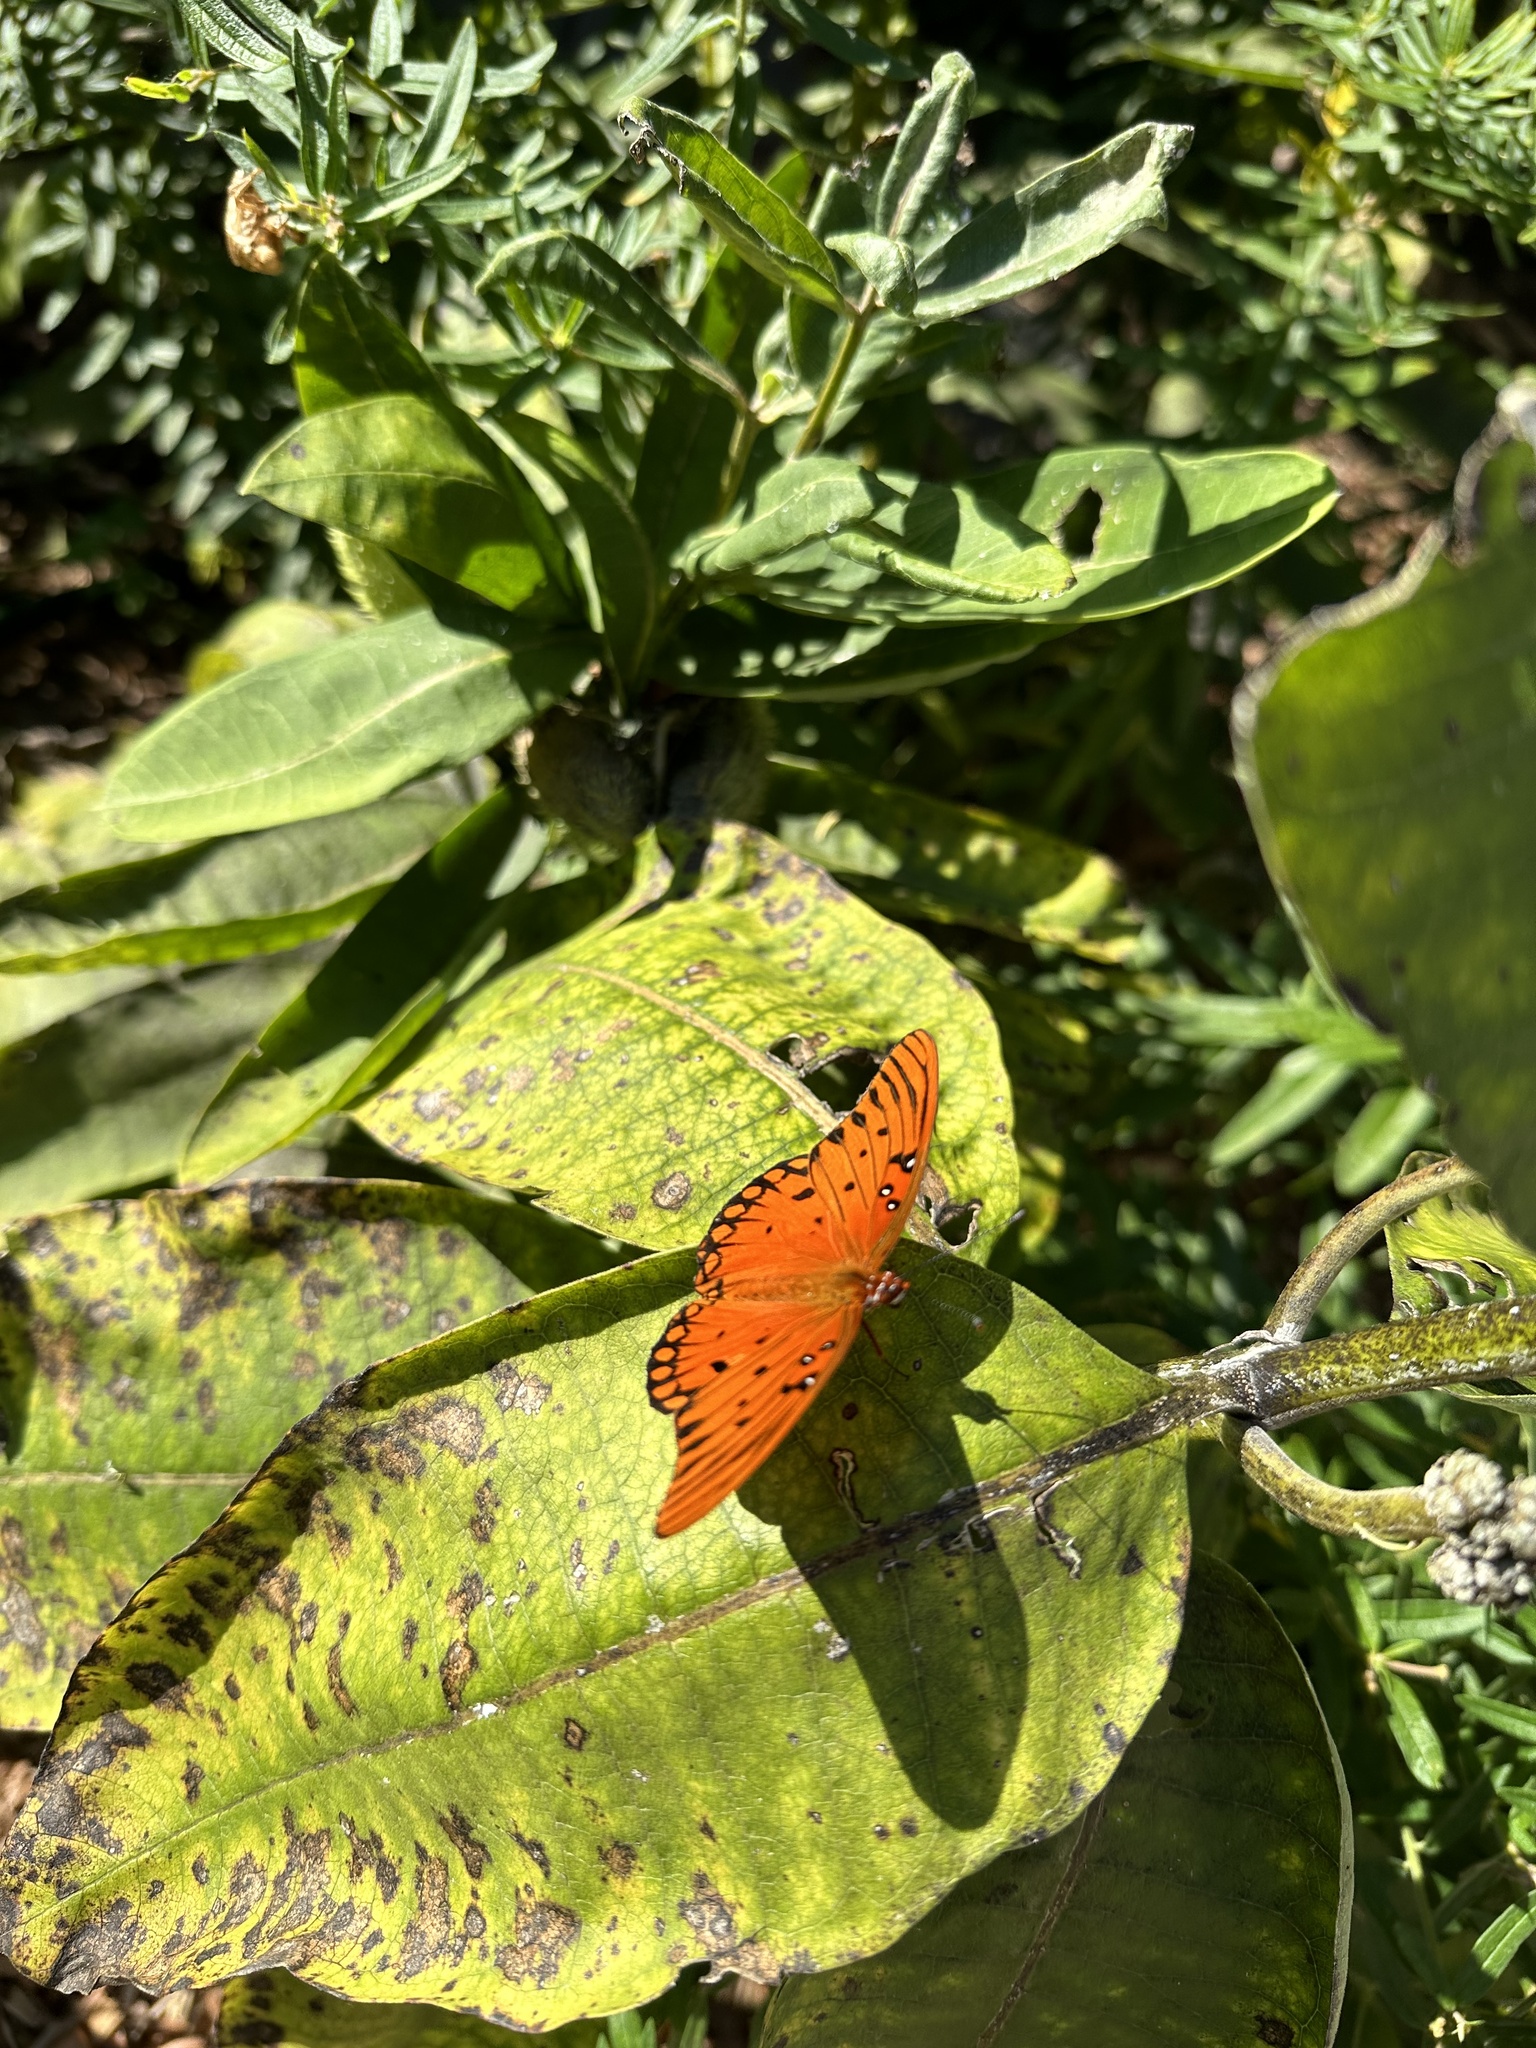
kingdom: Animalia
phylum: Arthropoda
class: Insecta
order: Lepidoptera
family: Nymphalidae
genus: Dione
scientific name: Dione vanillae
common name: Gulf fritillary
